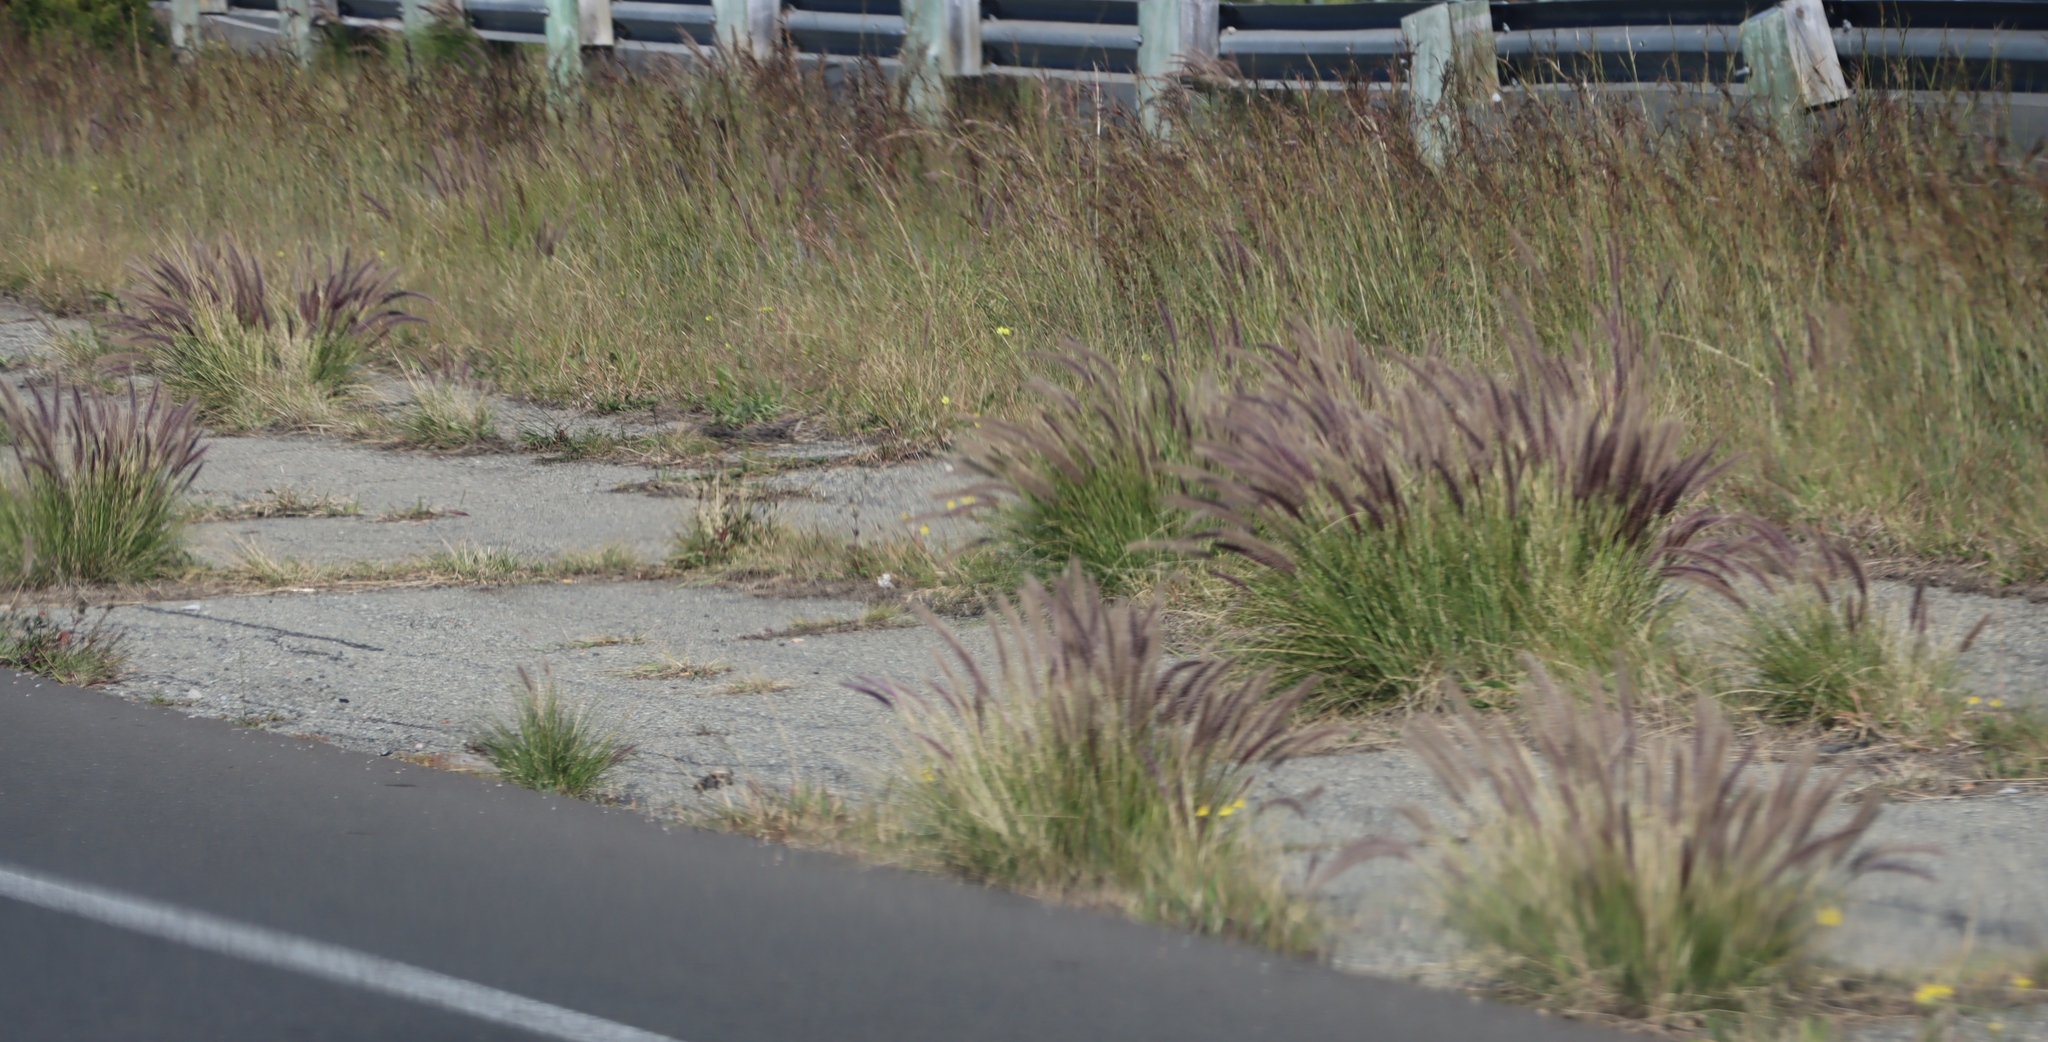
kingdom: Plantae
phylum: Tracheophyta
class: Liliopsida
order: Poales
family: Poaceae
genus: Cenchrus
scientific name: Cenchrus setaceus
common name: Crimson fountaingrass
